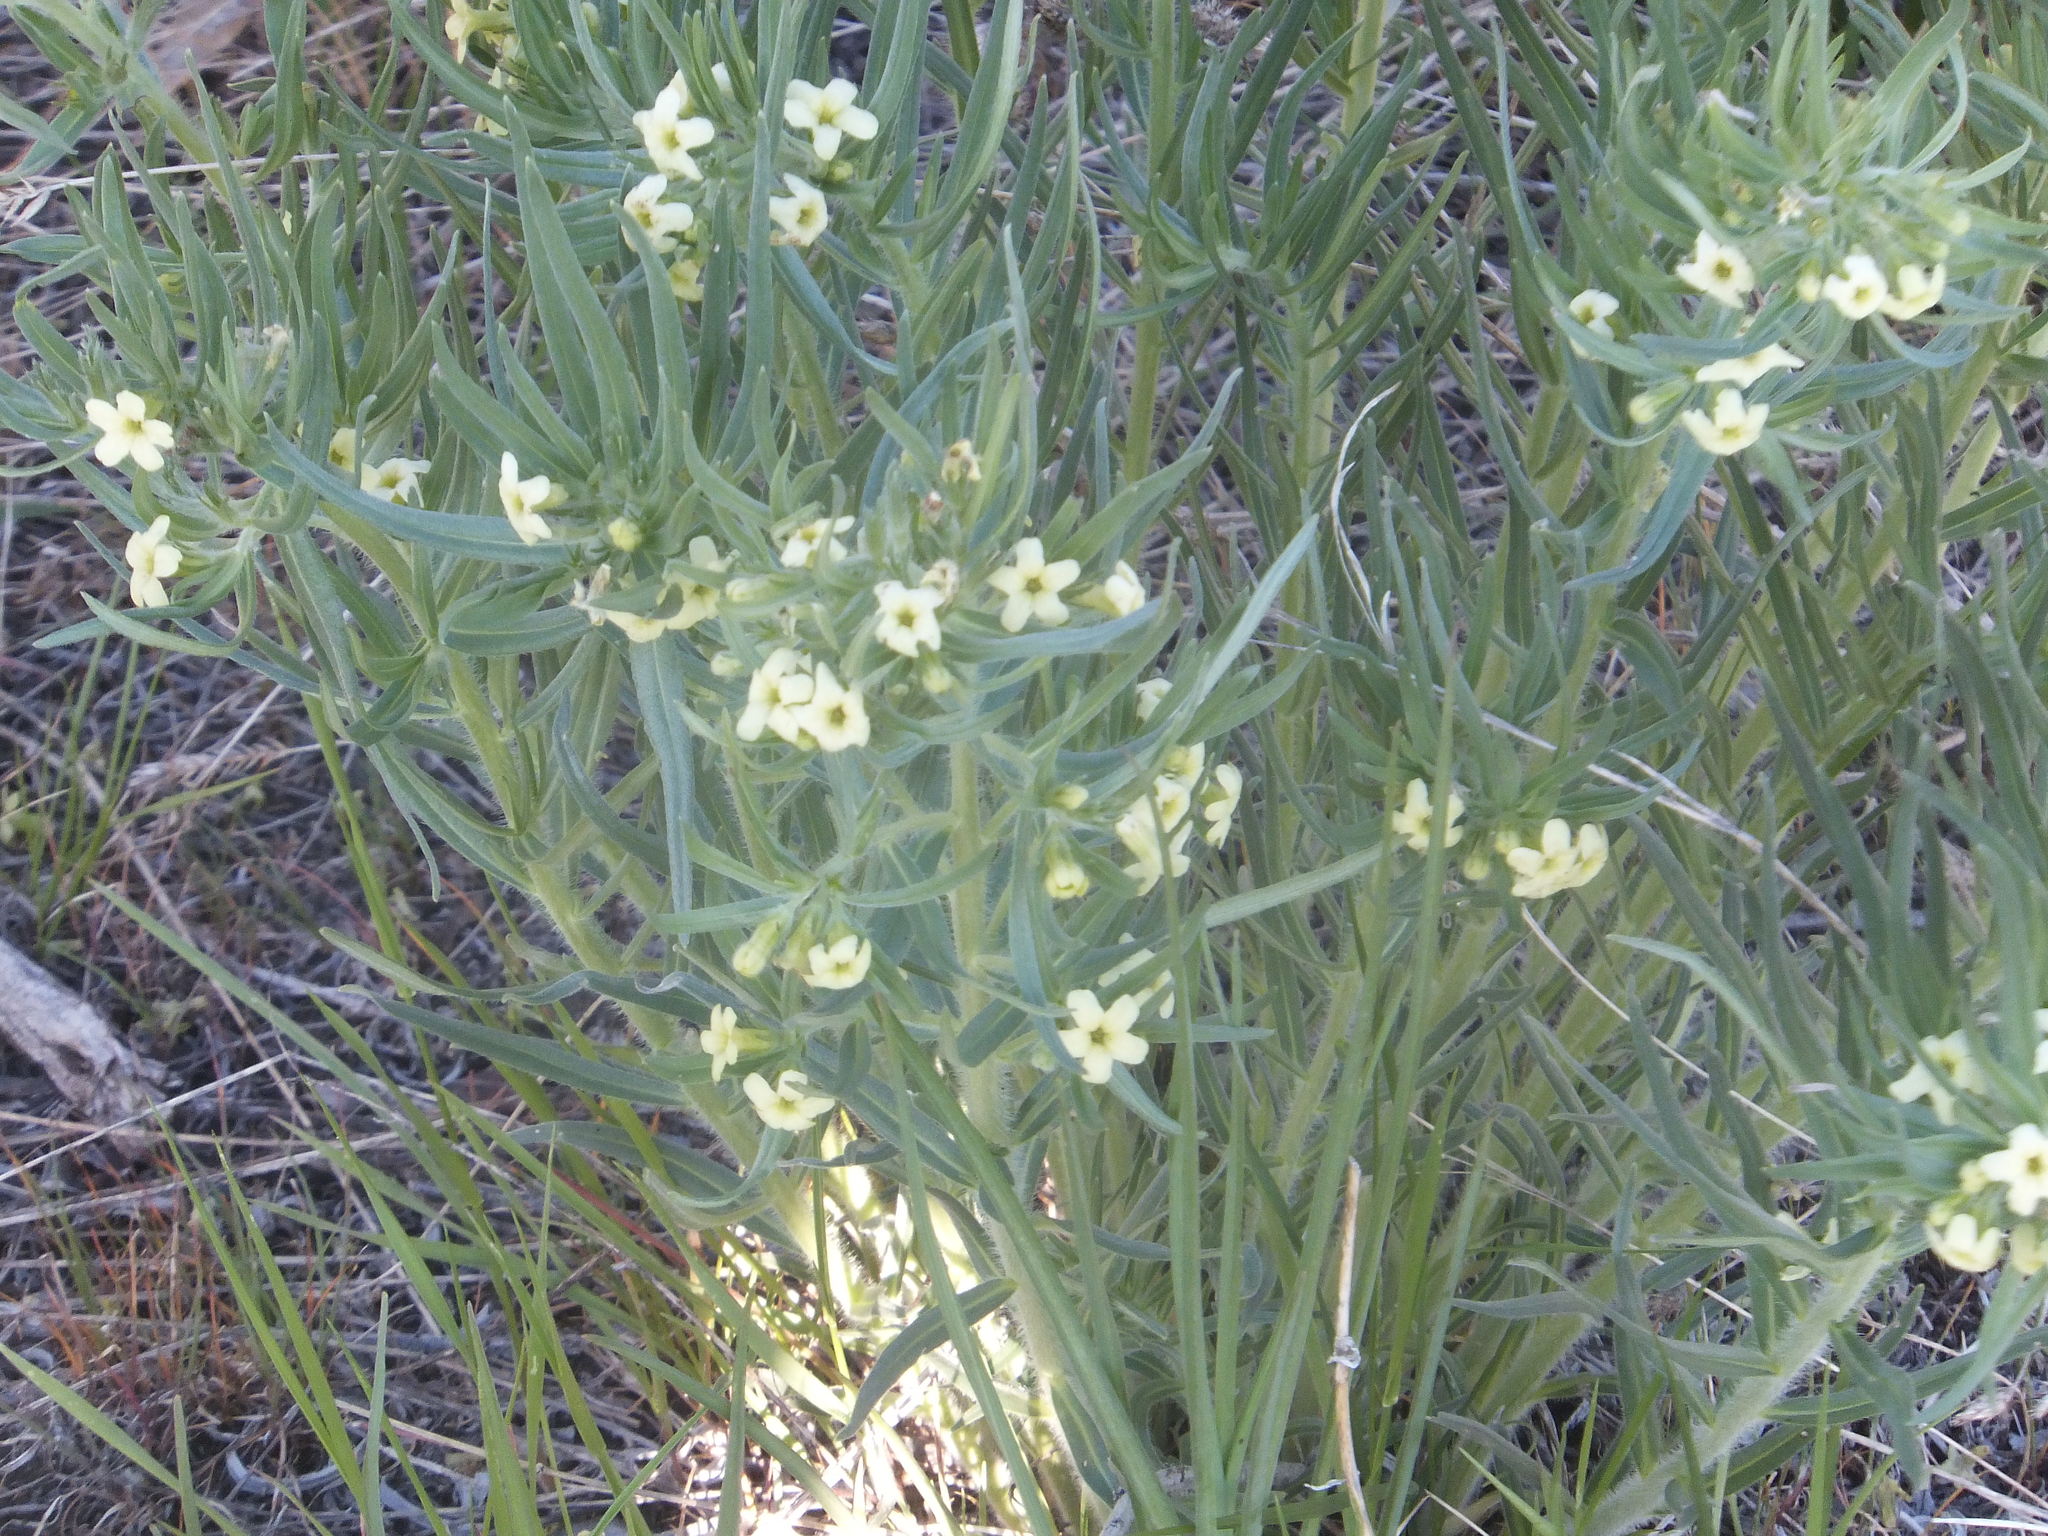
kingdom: Plantae
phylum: Tracheophyta
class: Magnoliopsida
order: Boraginales
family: Boraginaceae
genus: Lithospermum
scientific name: Lithospermum ruderale
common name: Western gromwell
